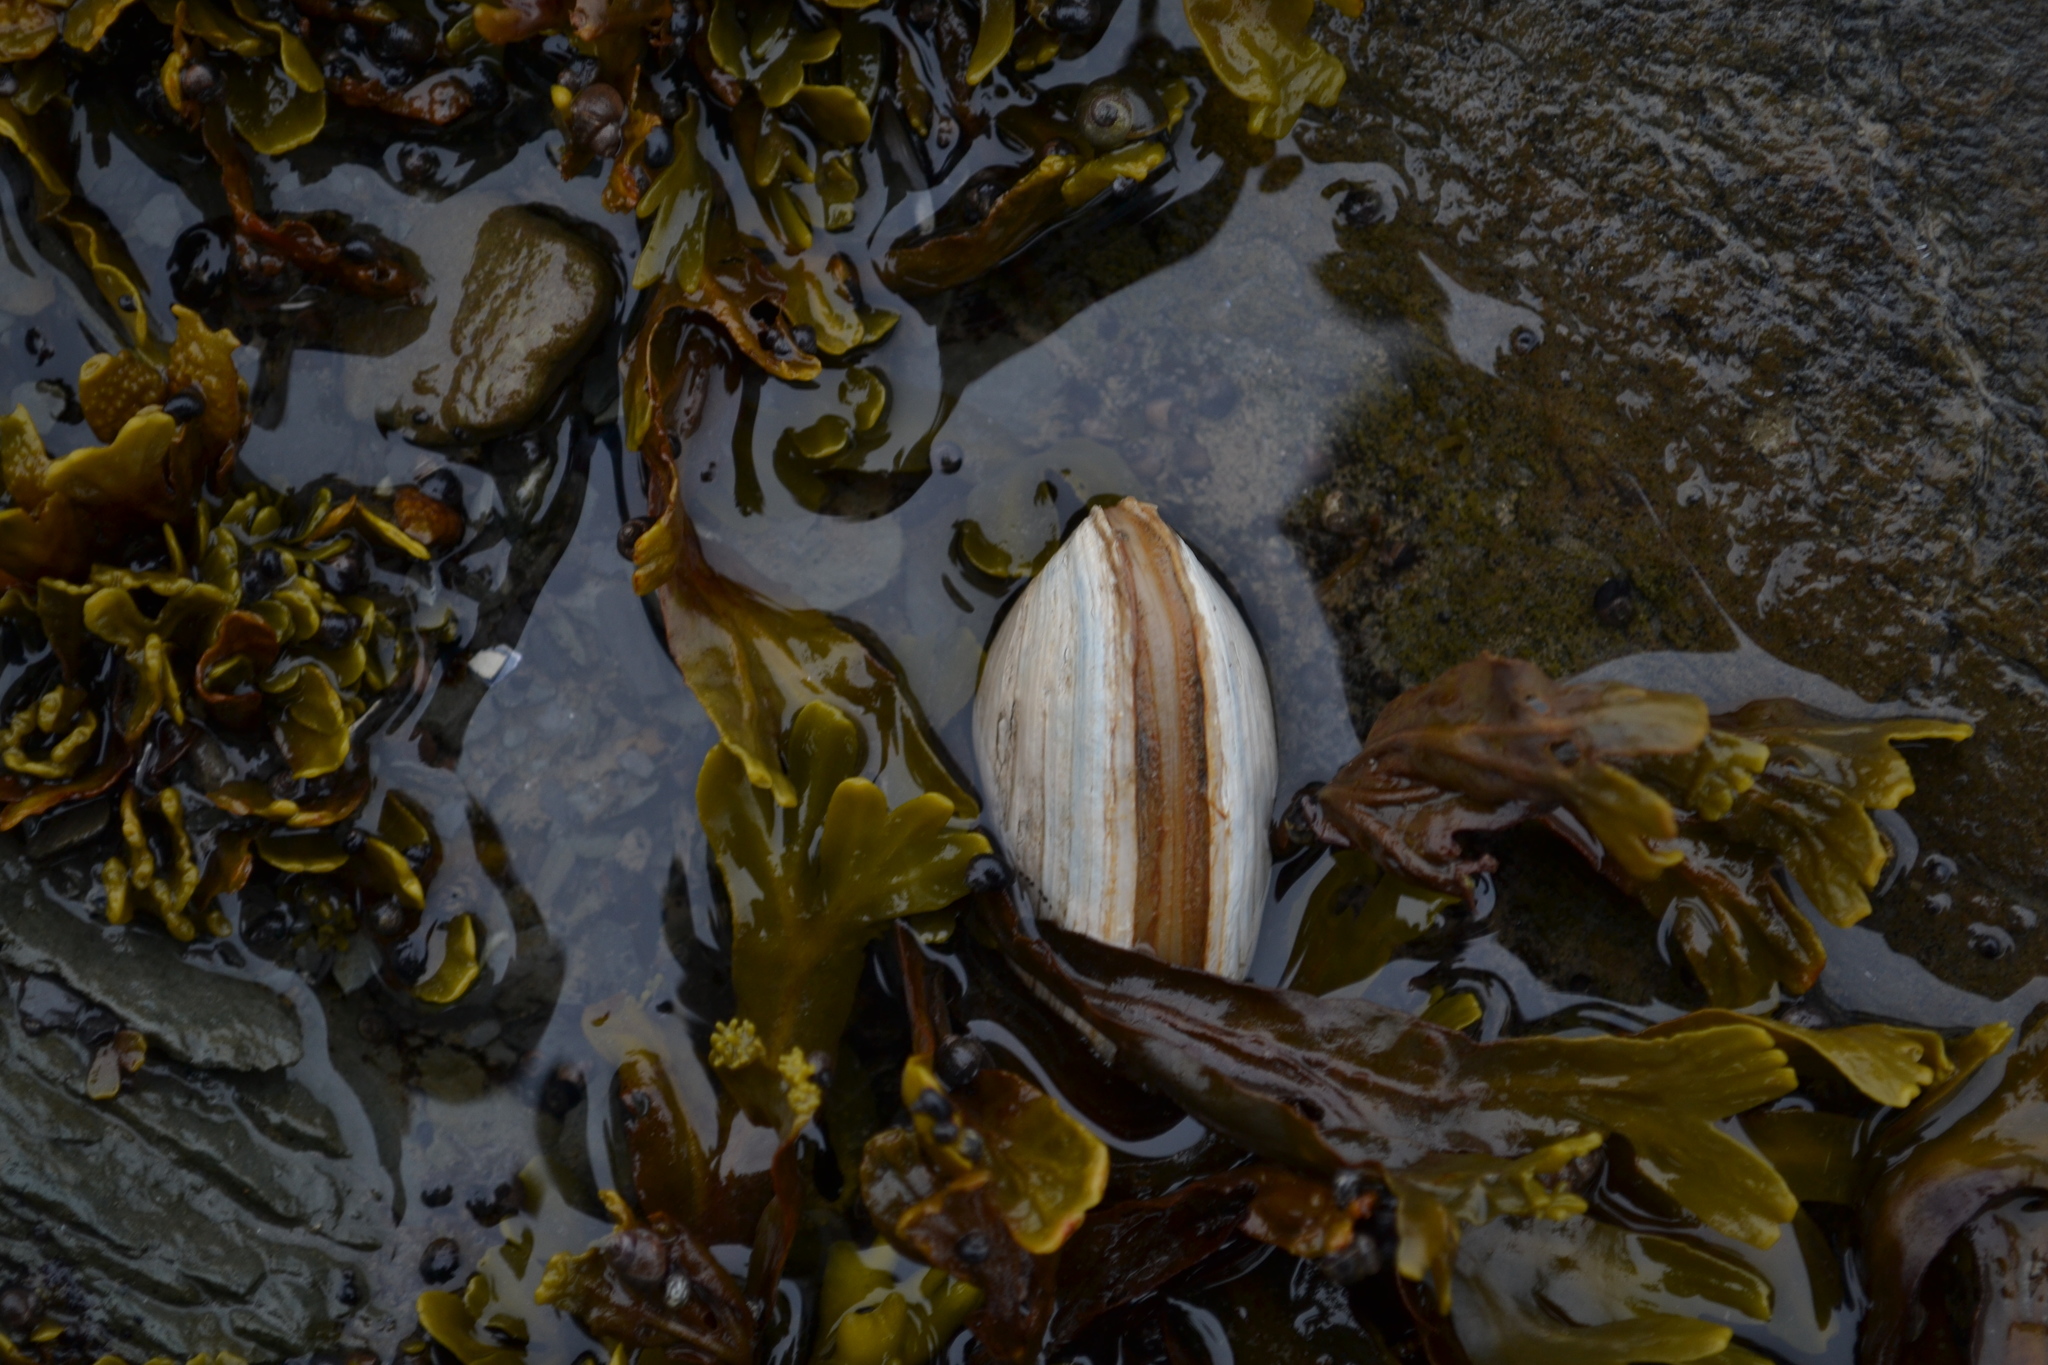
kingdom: Animalia
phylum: Mollusca
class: Bivalvia
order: Myida
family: Myidae
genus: Mya
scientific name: Mya arenaria
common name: Soft-shelled clam
